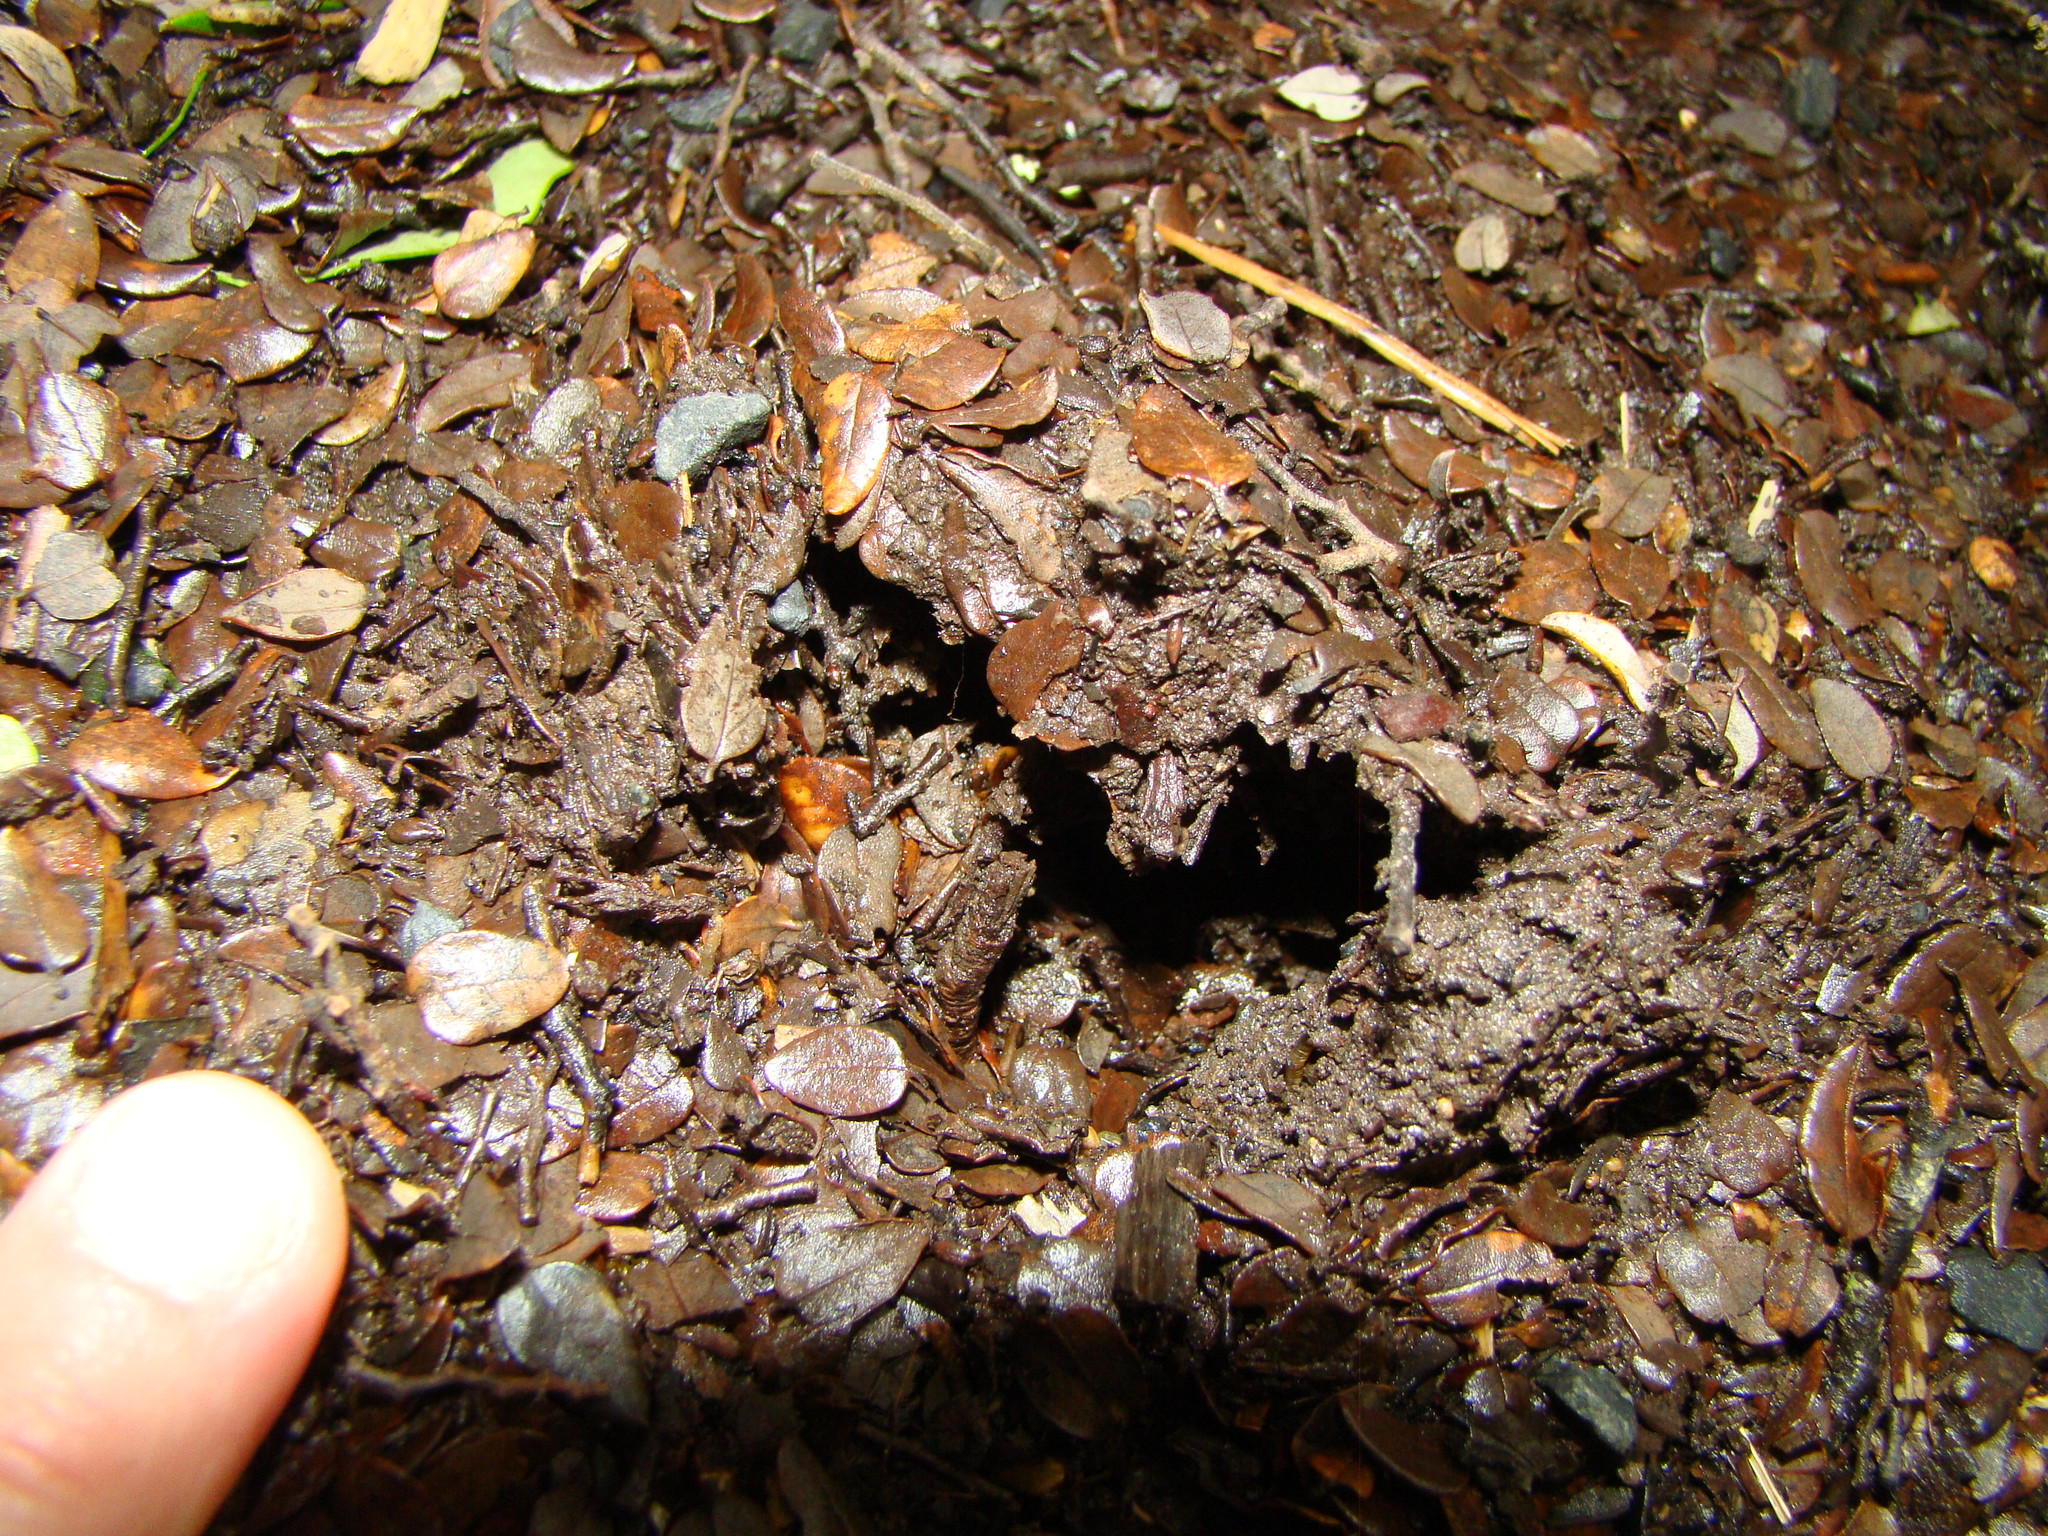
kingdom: Animalia
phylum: Chordata
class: Aves
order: Apterygiformes
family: Apterygidae
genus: Apteryx
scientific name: Apteryx mantelli
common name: North island brown kiwi
